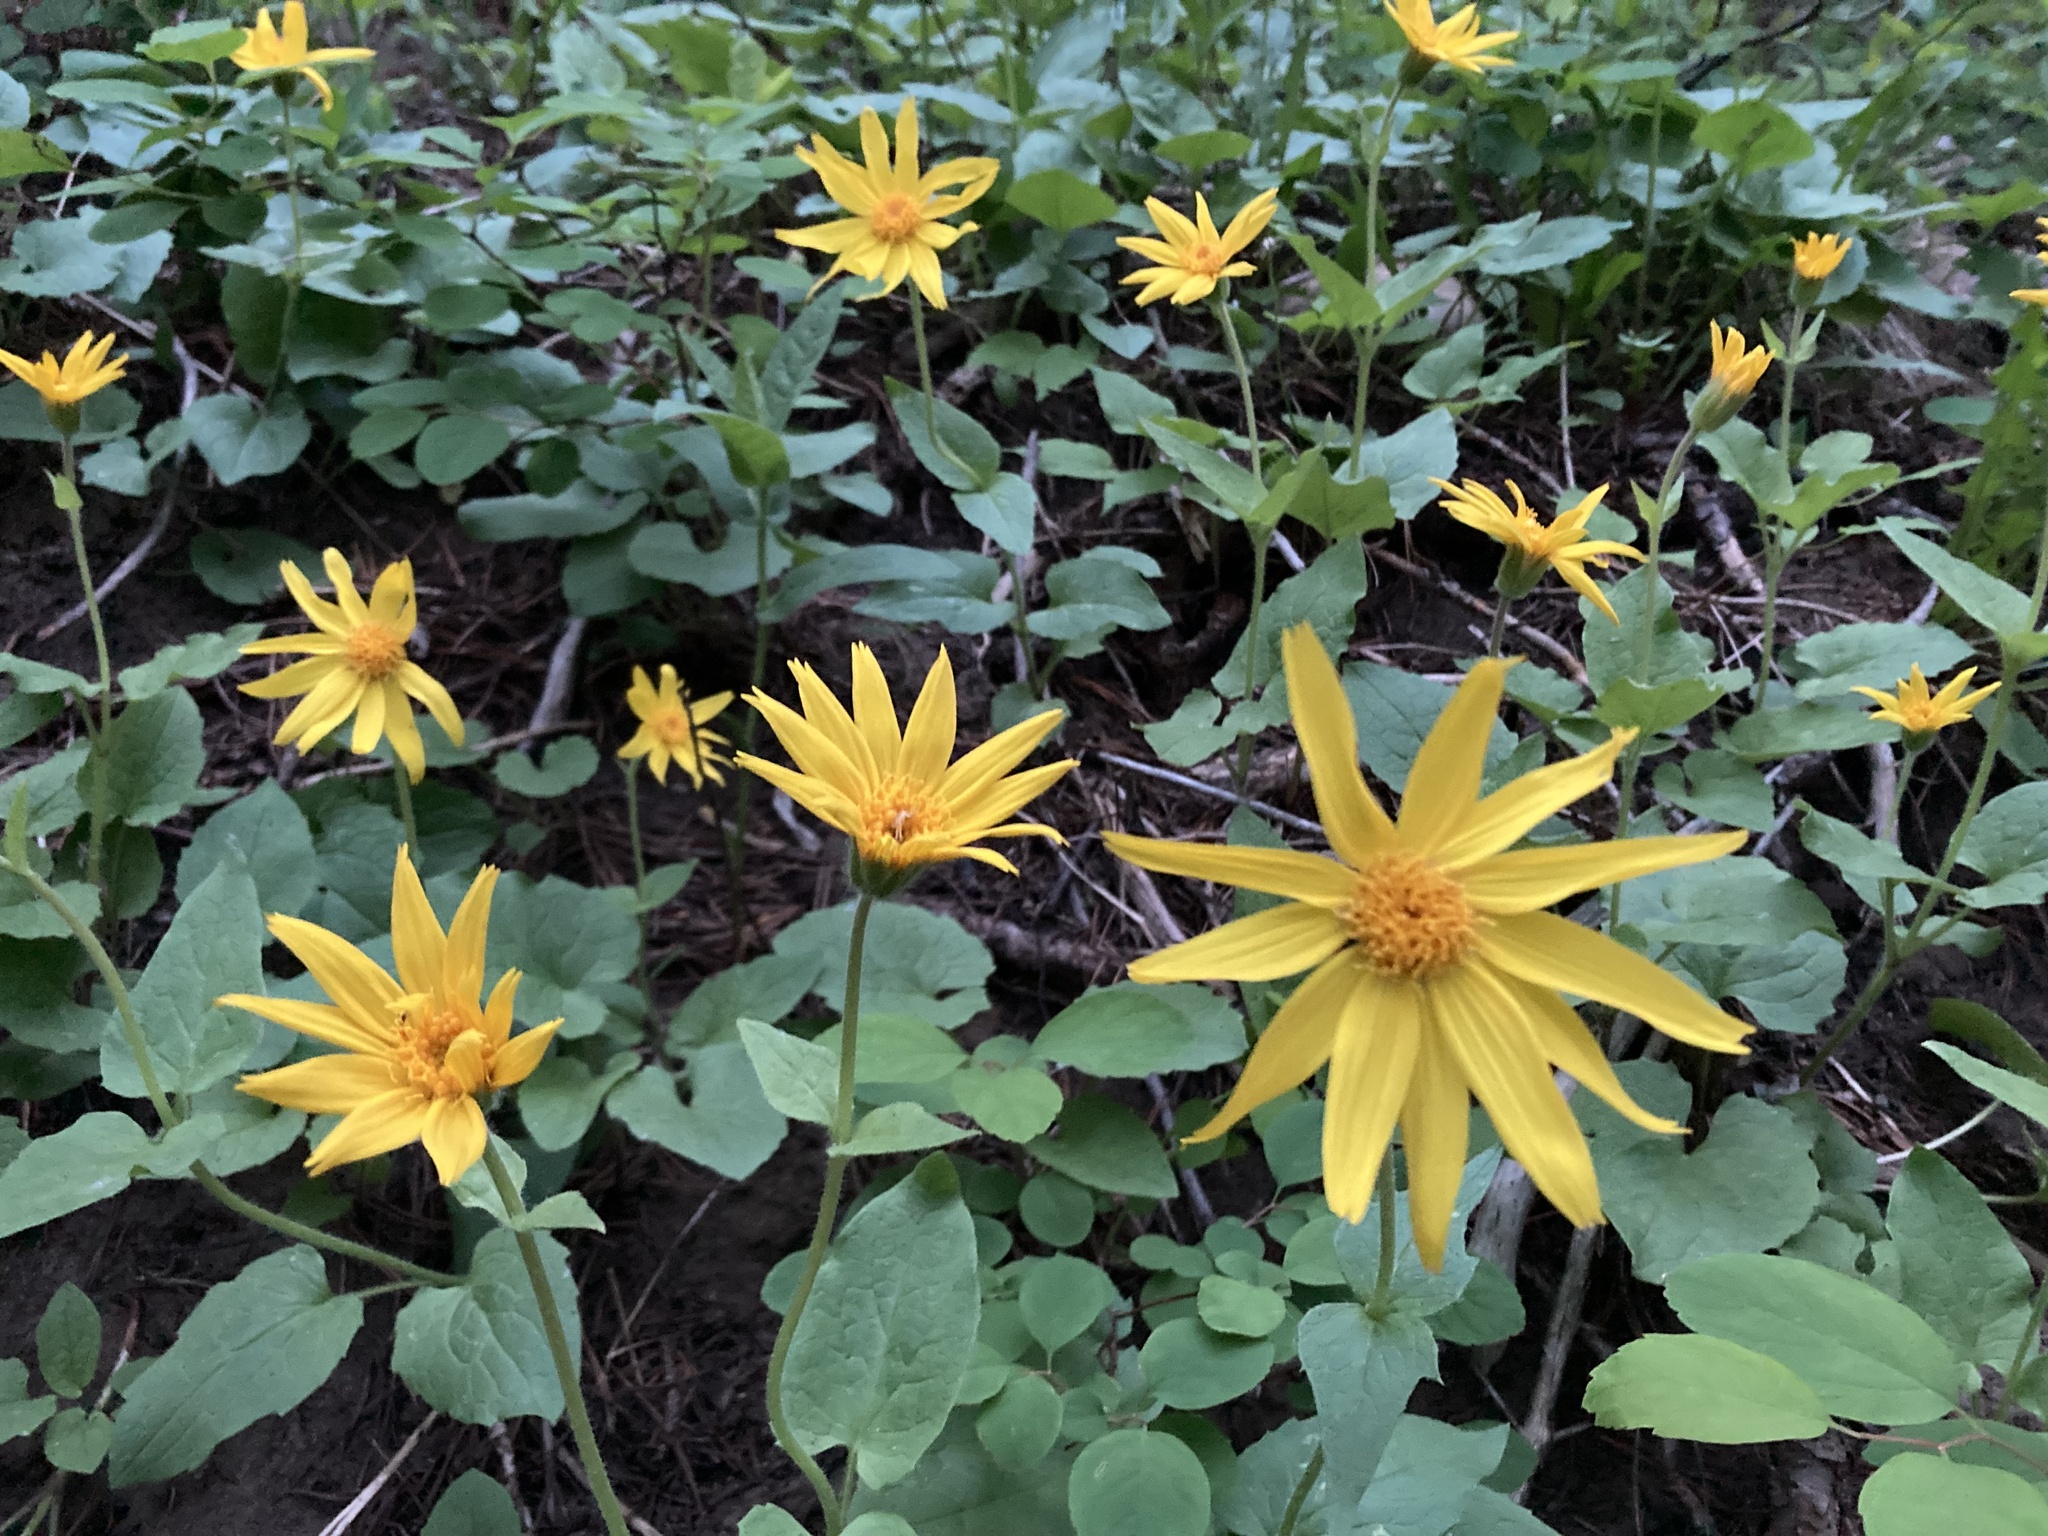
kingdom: Plantae
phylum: Tracheophyta
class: Magnoliopsida
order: Asterales
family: Asteraceae
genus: Arnica
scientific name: Arnica cordifolia
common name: Heart-leaf arnica
